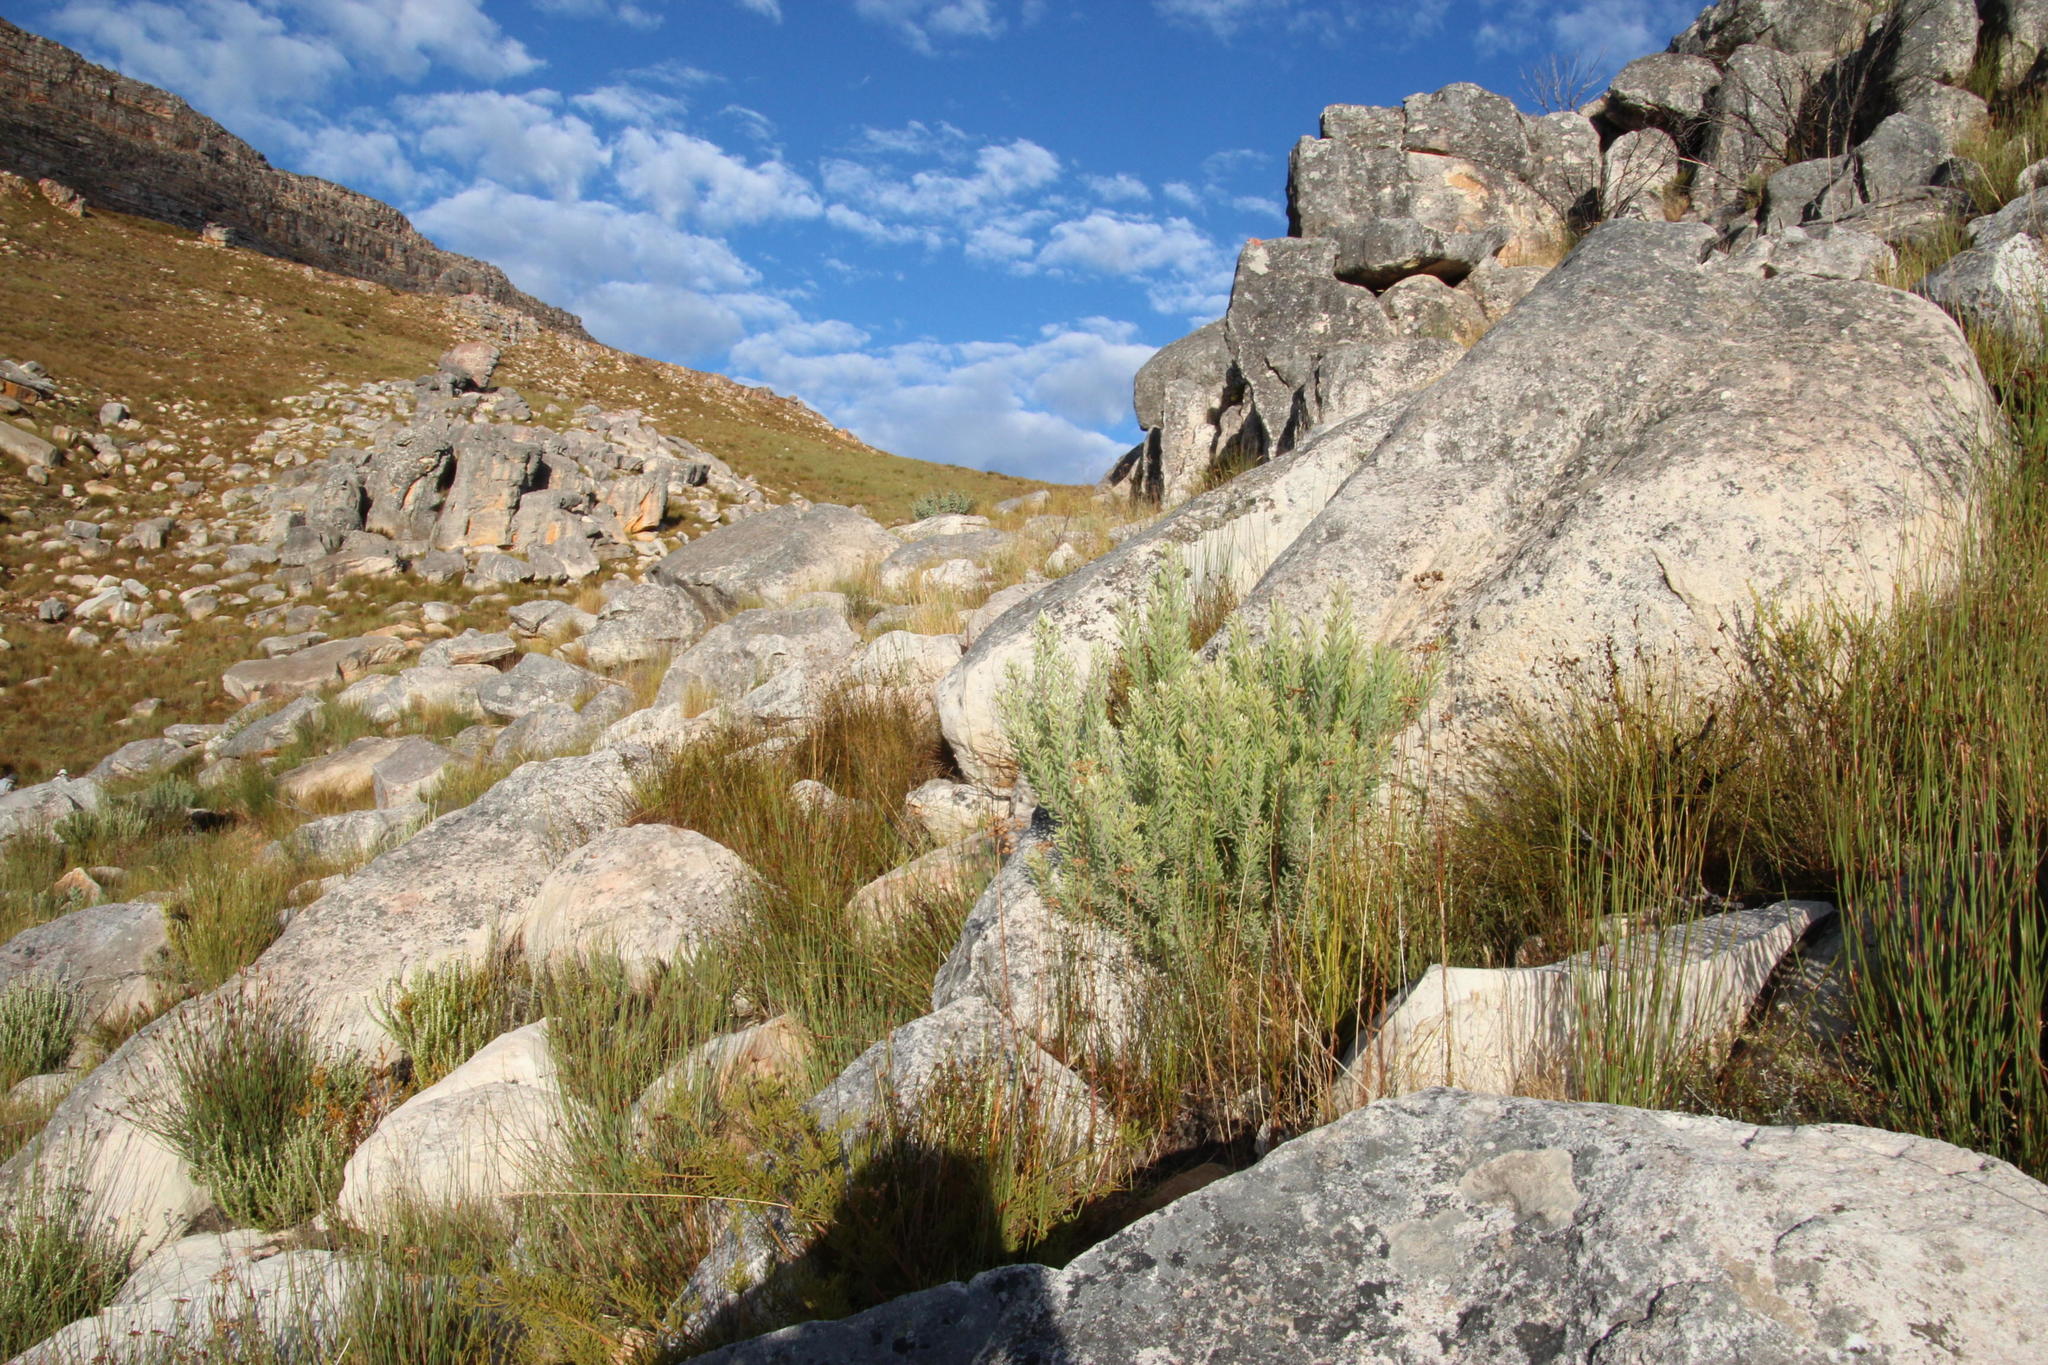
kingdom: Plantae
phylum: Tracheophyta
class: Magnoliopsida
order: Proteales
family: Proteaceae
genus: Leucadendron
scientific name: Leucadendron rubrum
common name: Spinning top
